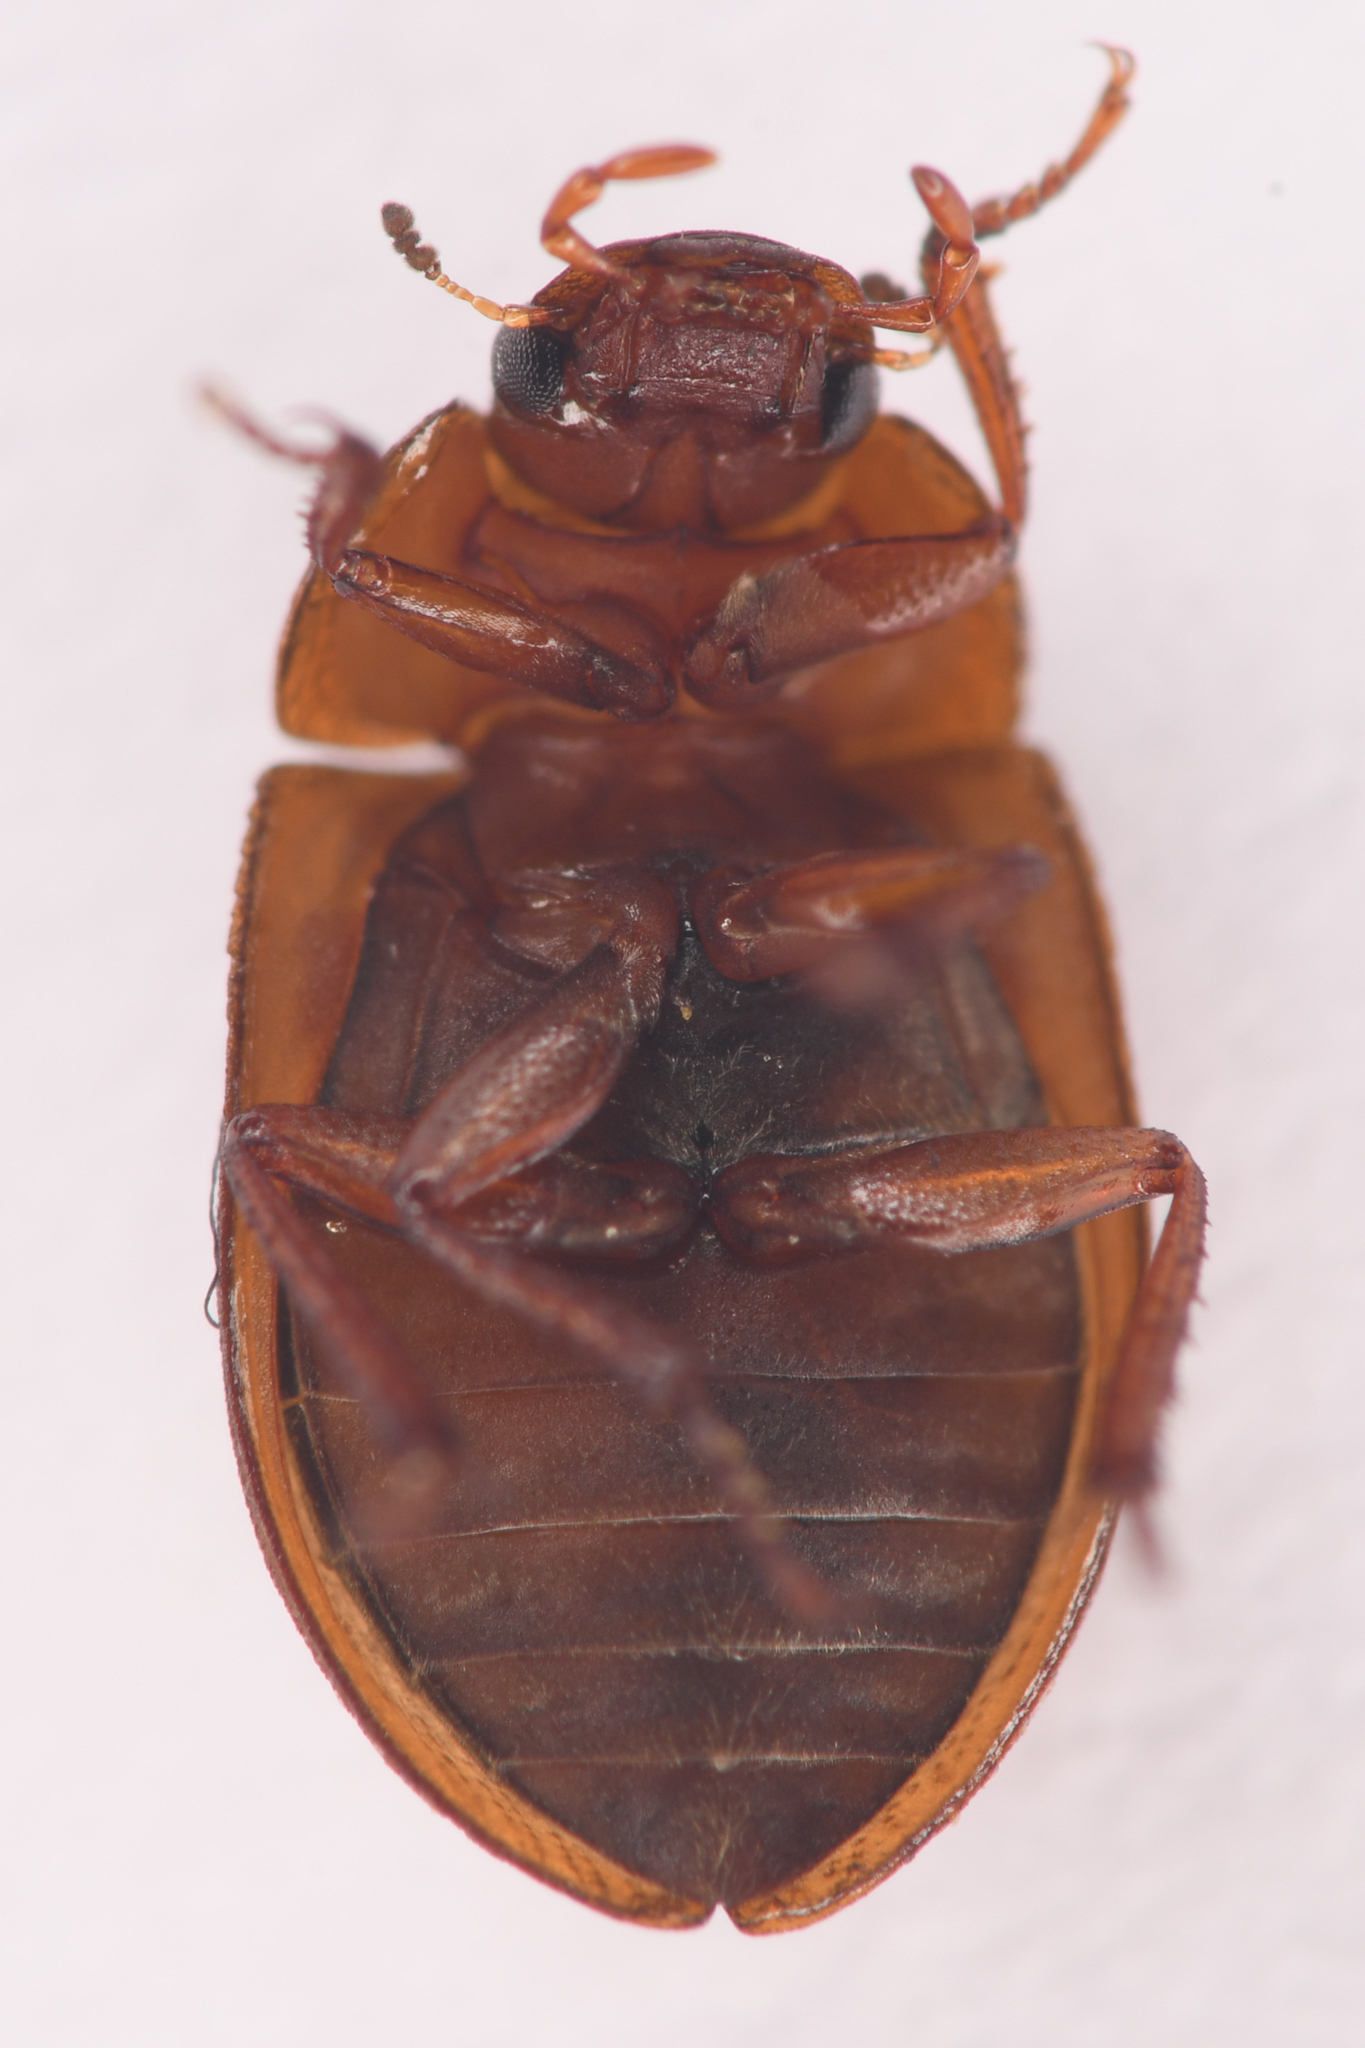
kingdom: Animalia
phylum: Arthropoda
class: Insecta
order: Coleoptera
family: Hydrophilidae
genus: Ametor
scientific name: Ametor
